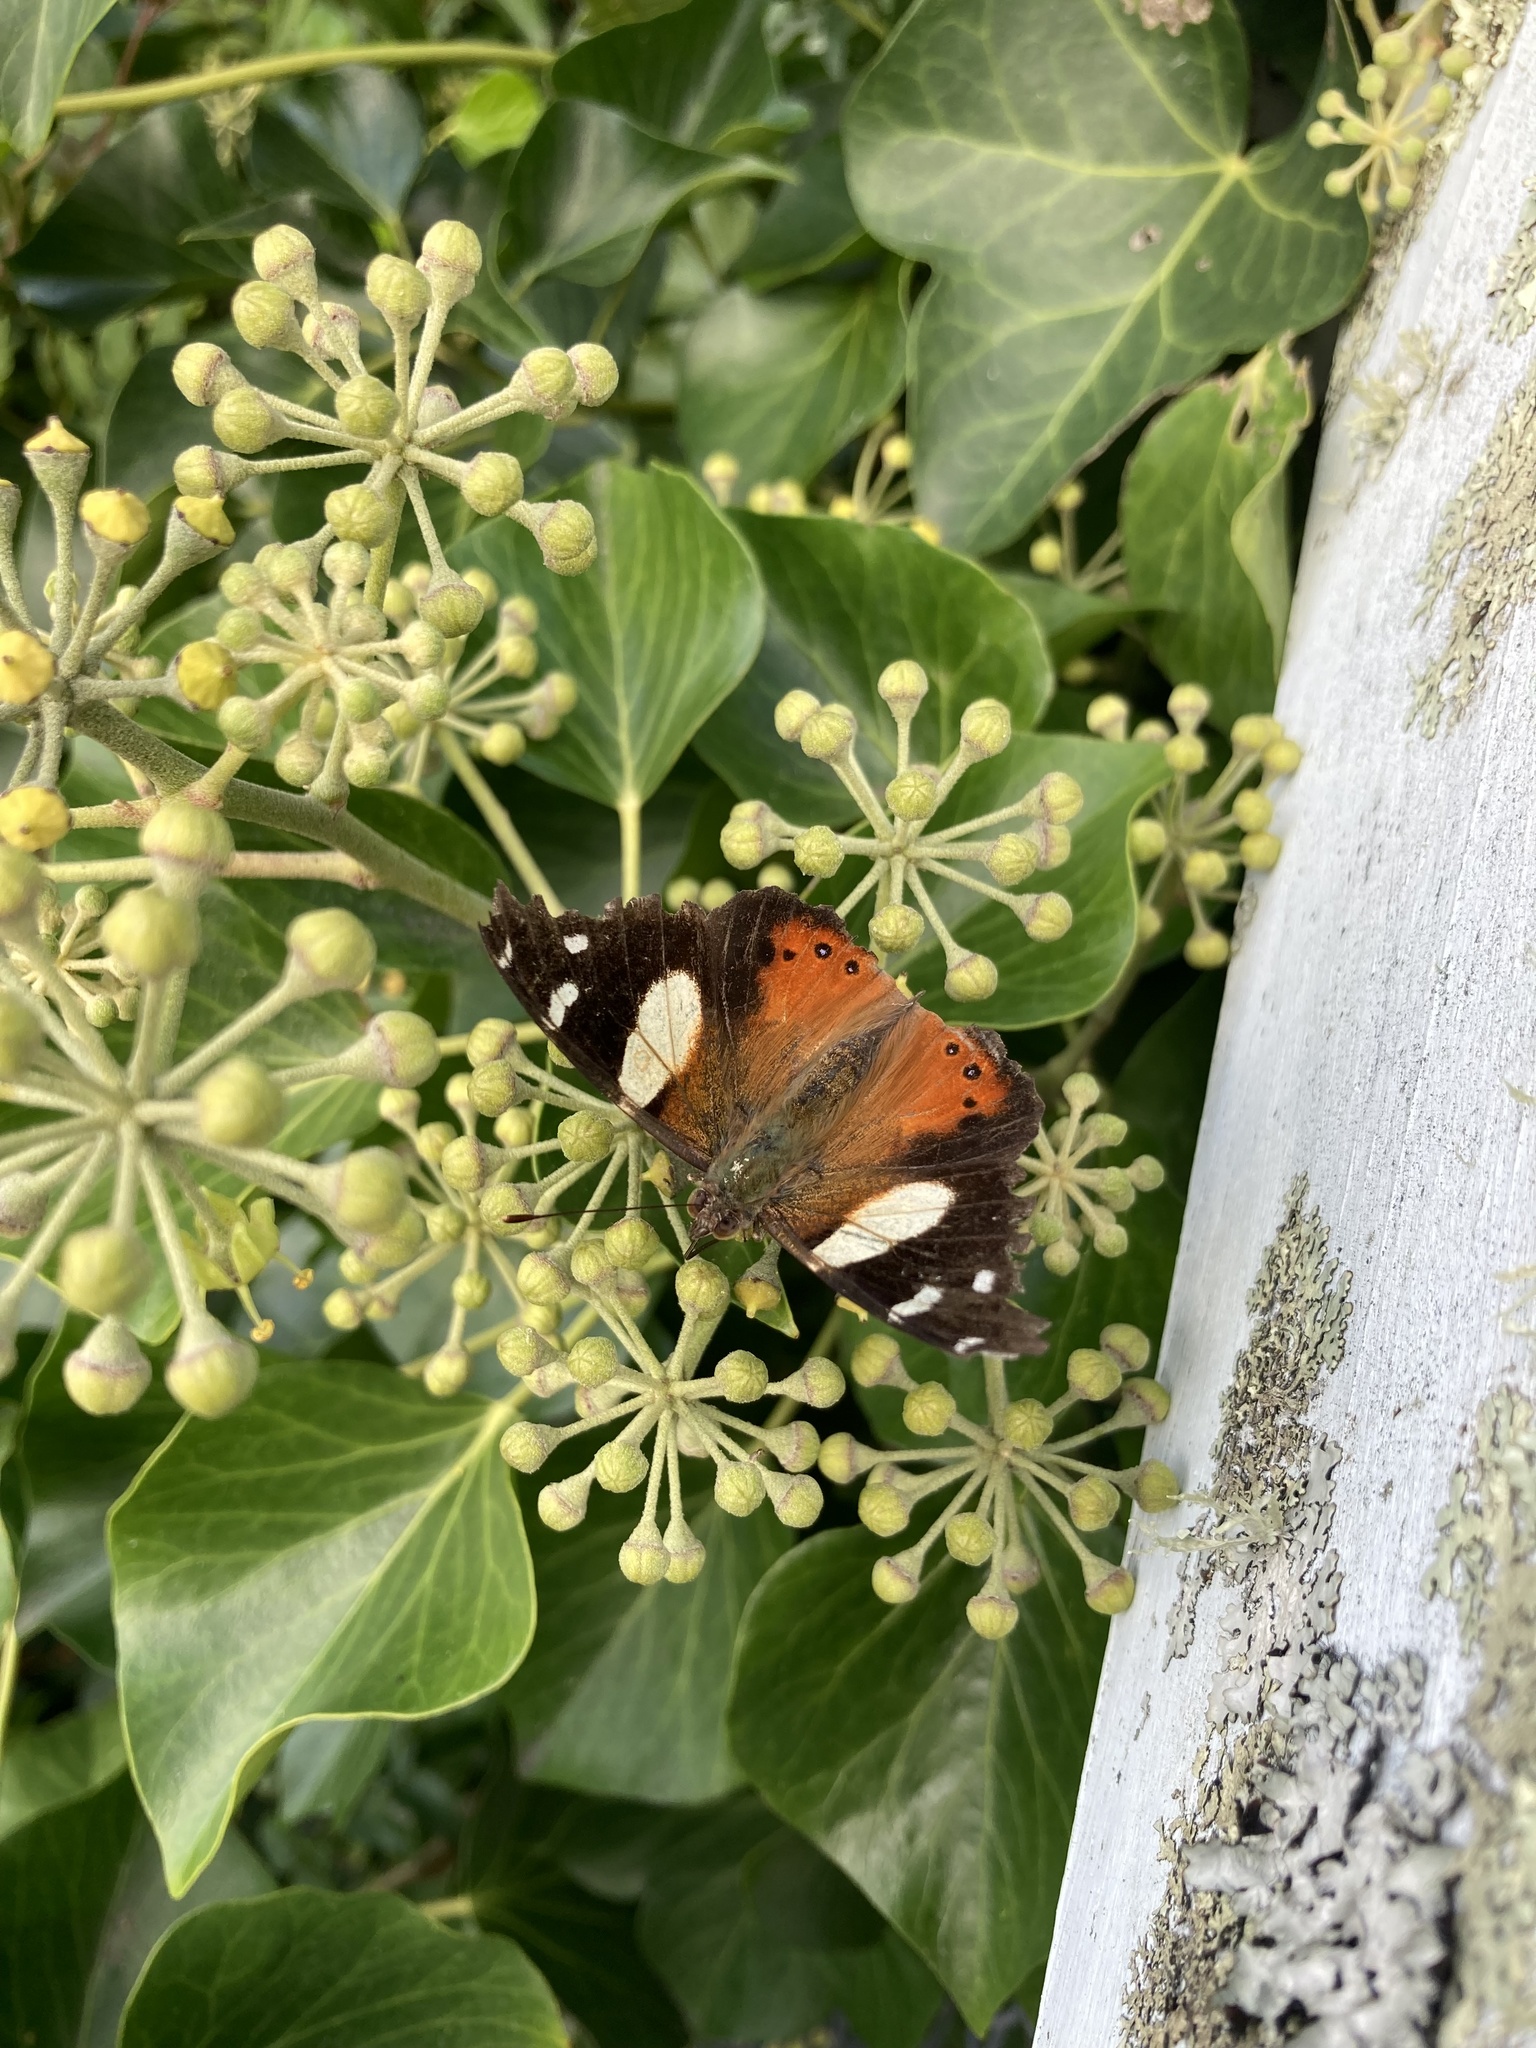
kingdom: Animalia
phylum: Arthropoda
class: Insecta
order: Lepidoptera
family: Nymphalidae
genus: Vanessa
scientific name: Vanessa itea
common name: Yellow admiral
